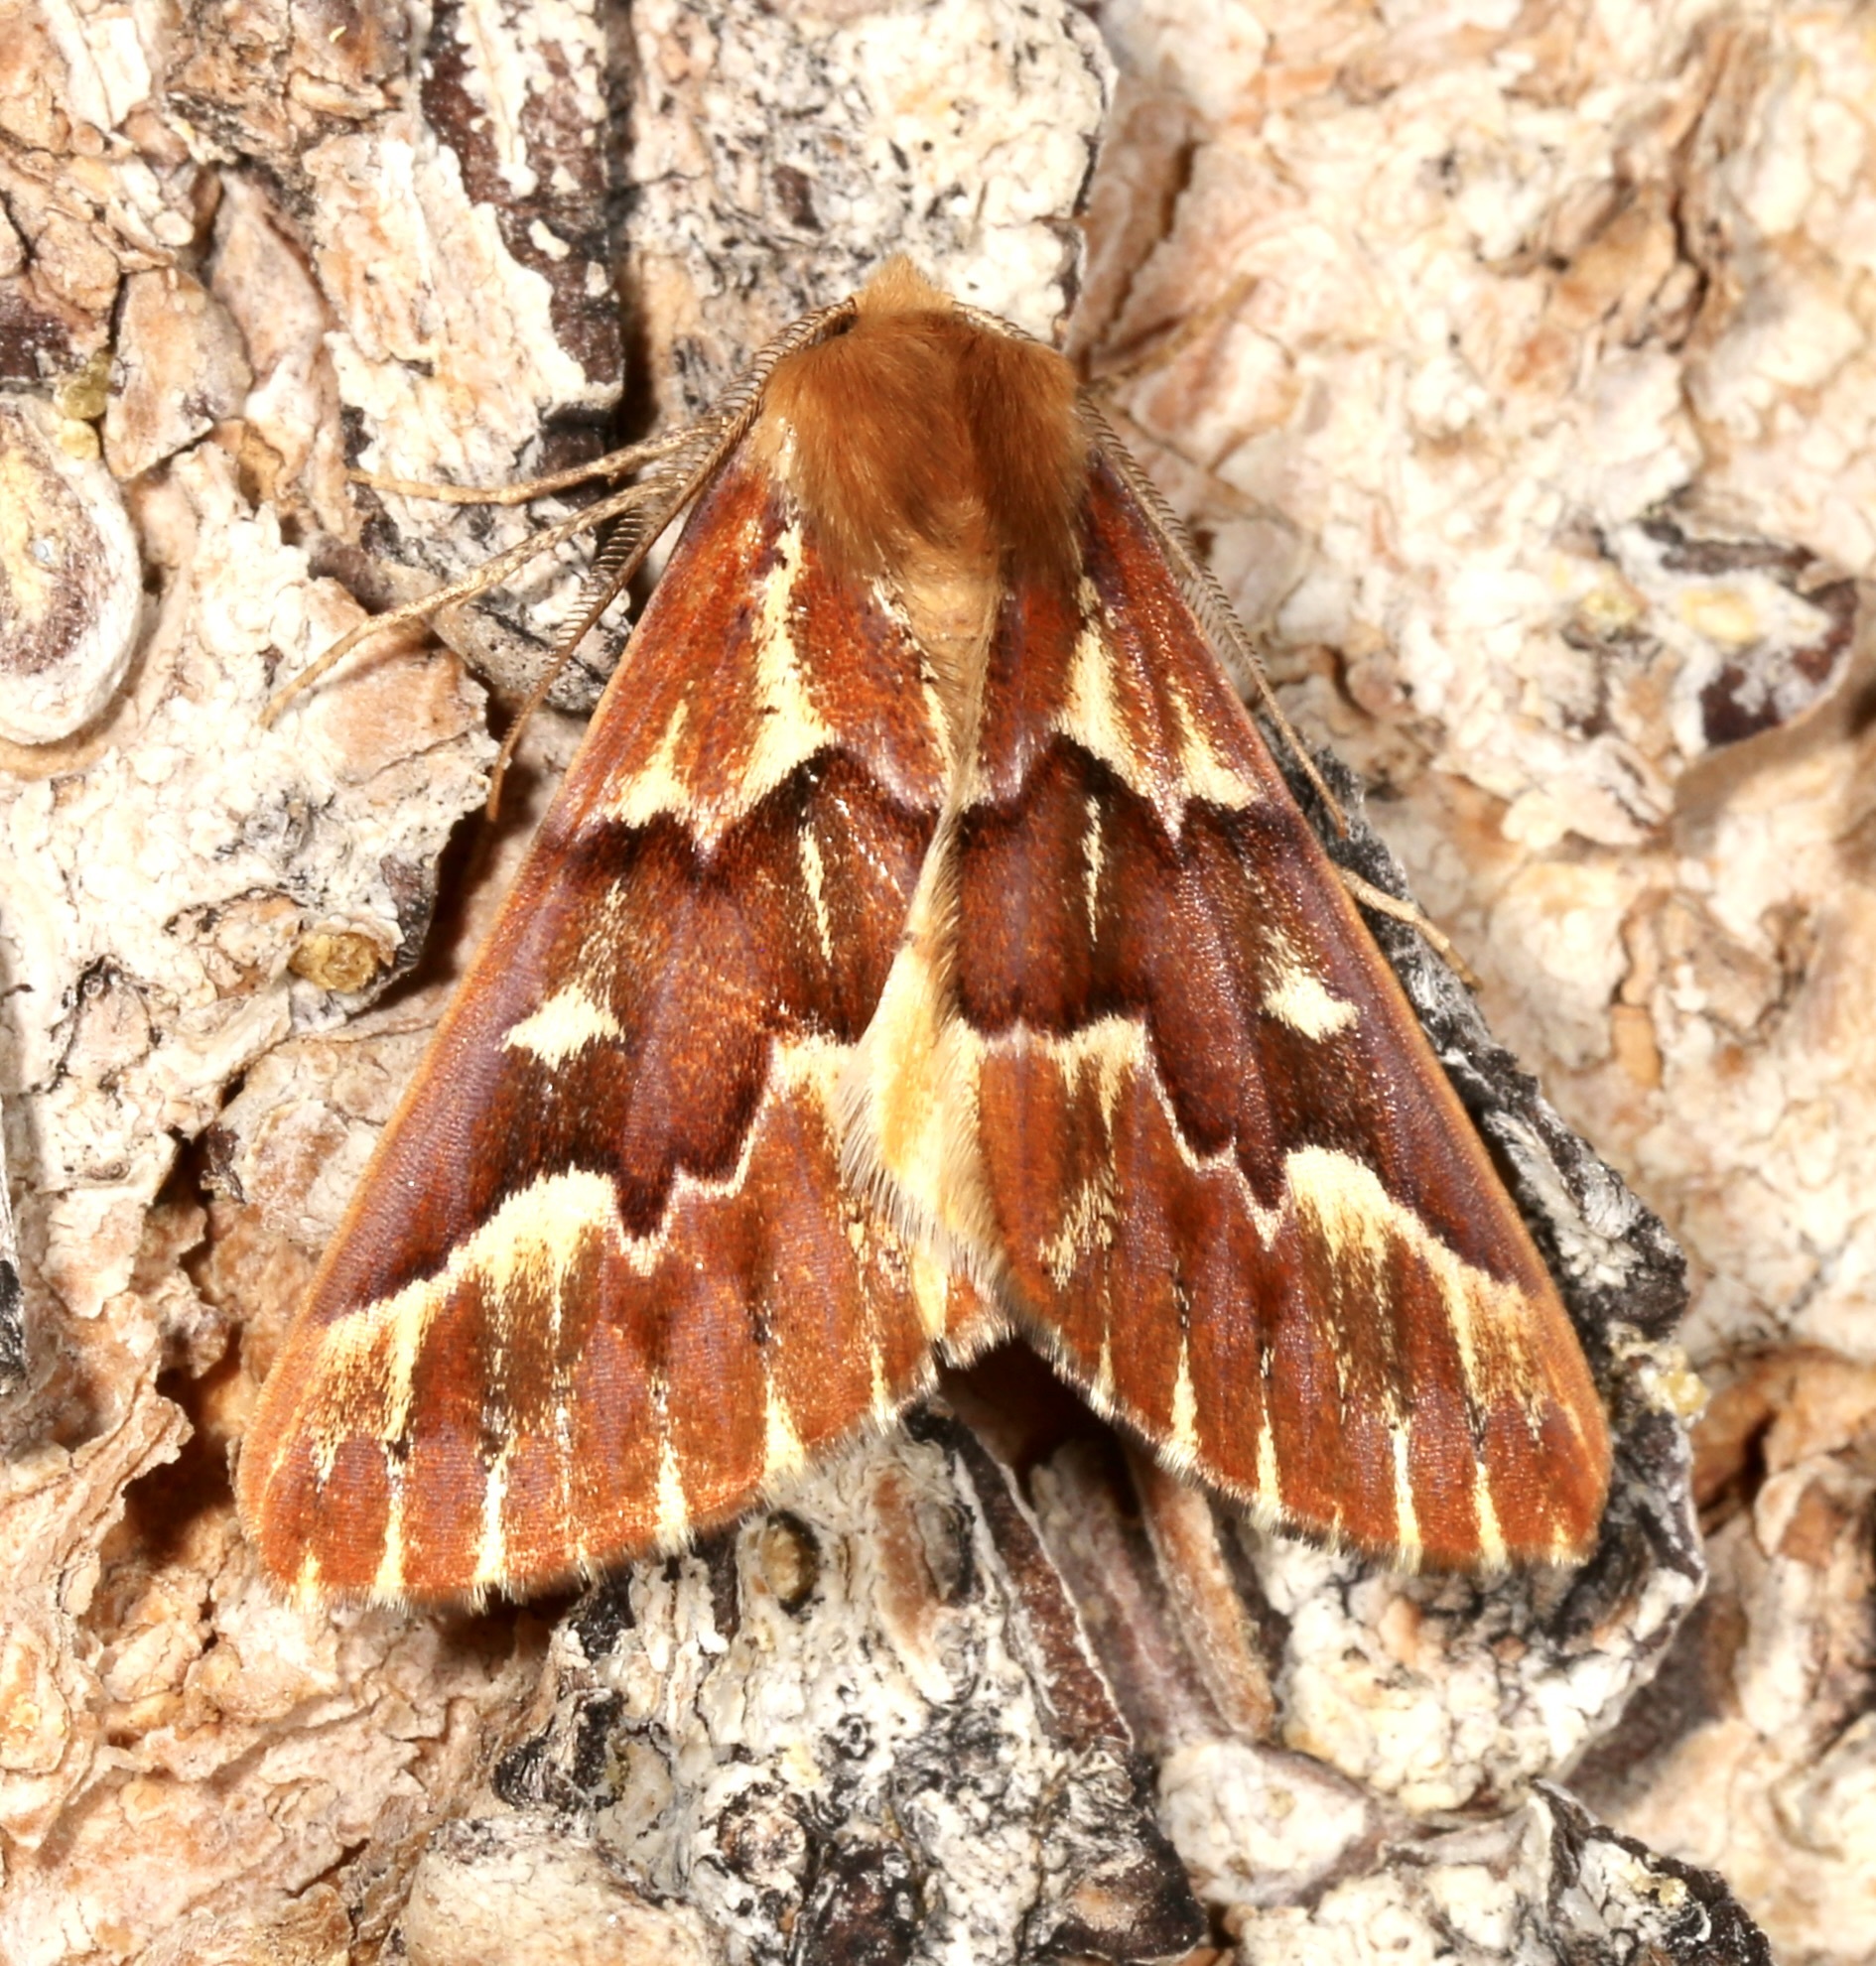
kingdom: Animalia
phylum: Arthropoda
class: Insecta
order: Lepidoptera
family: Geometridae
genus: Caripeta
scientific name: Caripeta aequaliaria
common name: Red girdle moth
